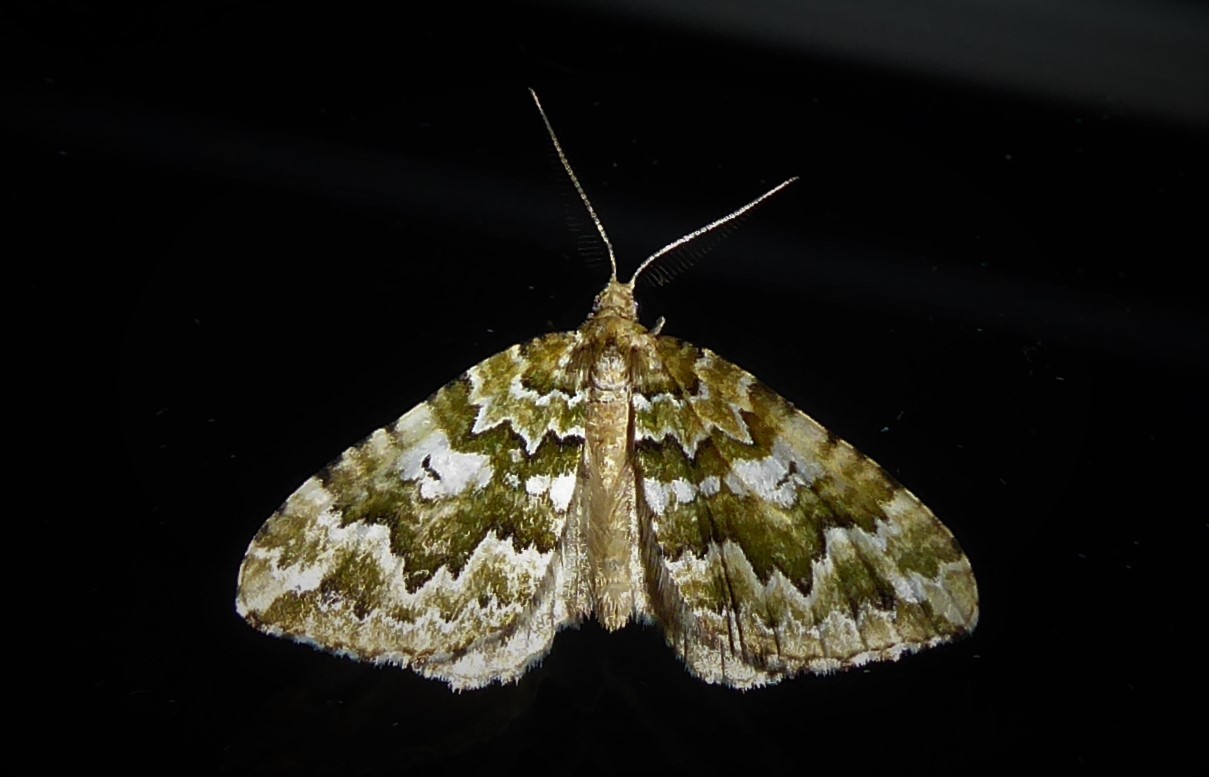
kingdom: Animalia
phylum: Arthropoda
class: Insecta
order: Lepidoptera
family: Geometridae
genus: Asaphodes
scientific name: Asaphodes beata
